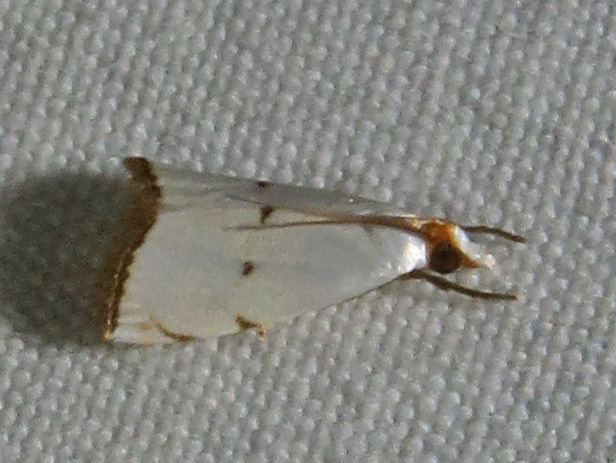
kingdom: Animalia
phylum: Arthropoda
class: Insecta
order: Lepidoptera
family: Crambidae
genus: Argyria
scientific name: Argyria pusillalis
